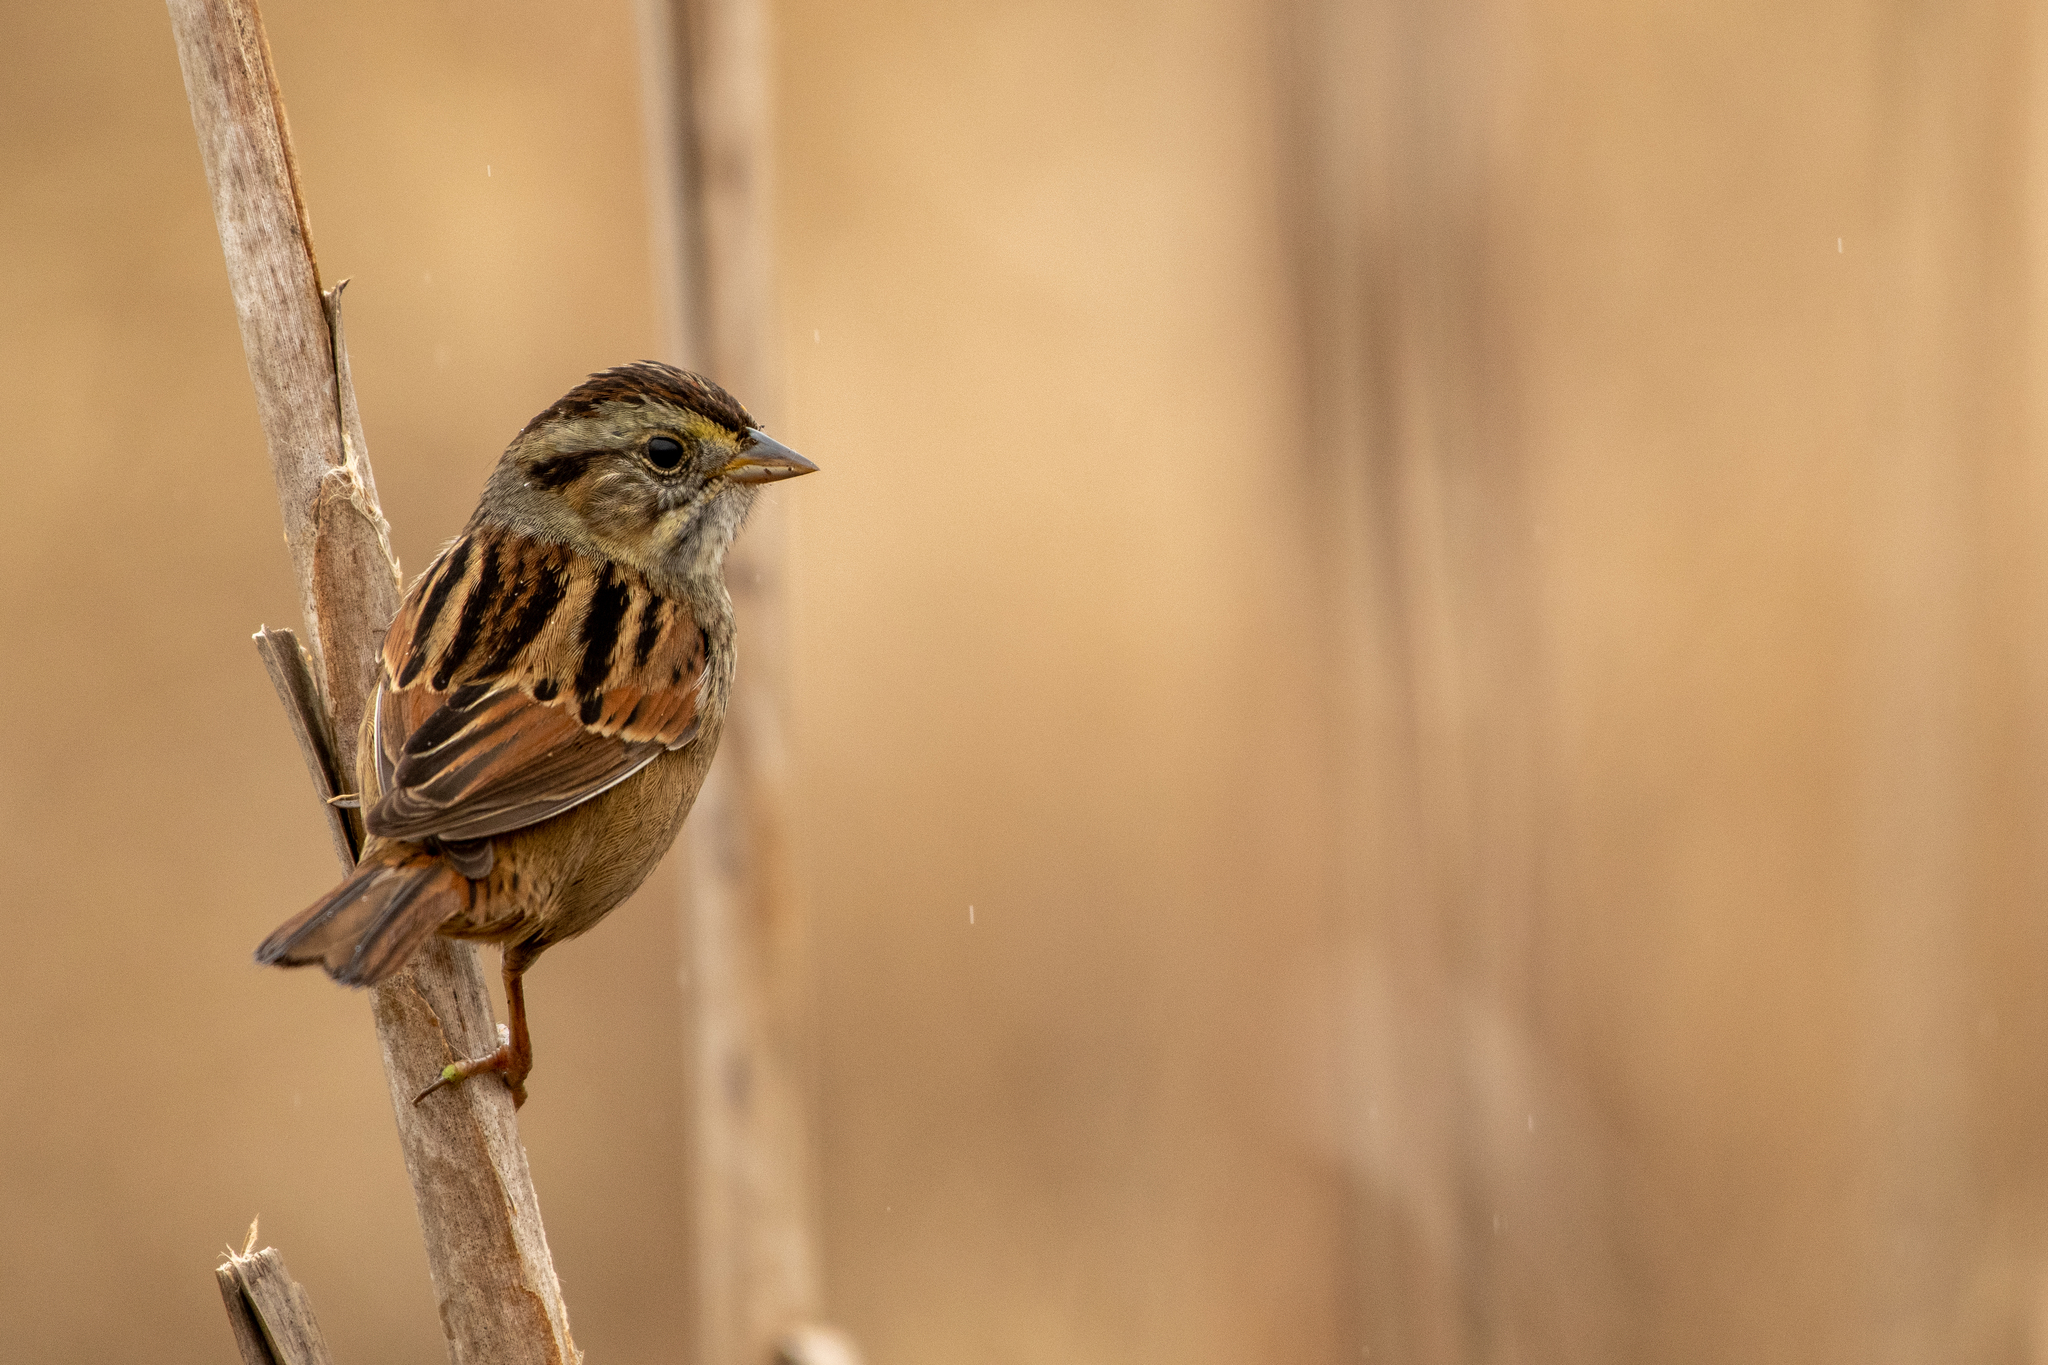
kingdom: Animalia
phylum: Chordata
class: Aves
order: Passeriformes
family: Passerellidae
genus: Melospiza
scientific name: Melospiza georgiana
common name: Swamp sparrow
